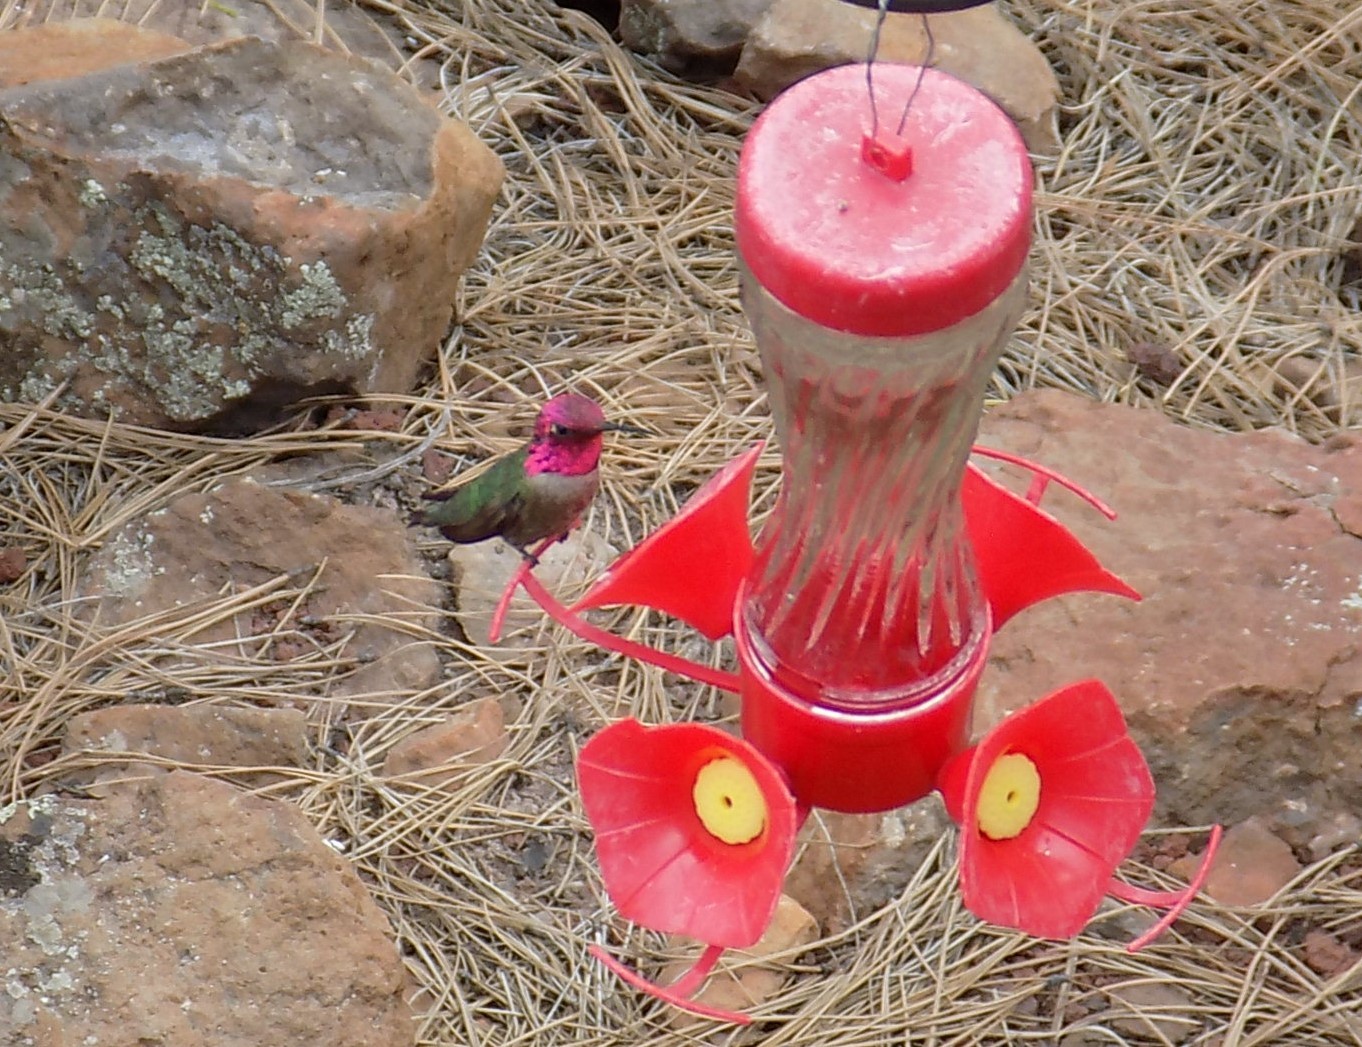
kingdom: Animalia
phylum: Chordata
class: Aves
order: Apodiformes
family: Trochilidae
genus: Calypte
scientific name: Calypte anna
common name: Anna's hummingbird
